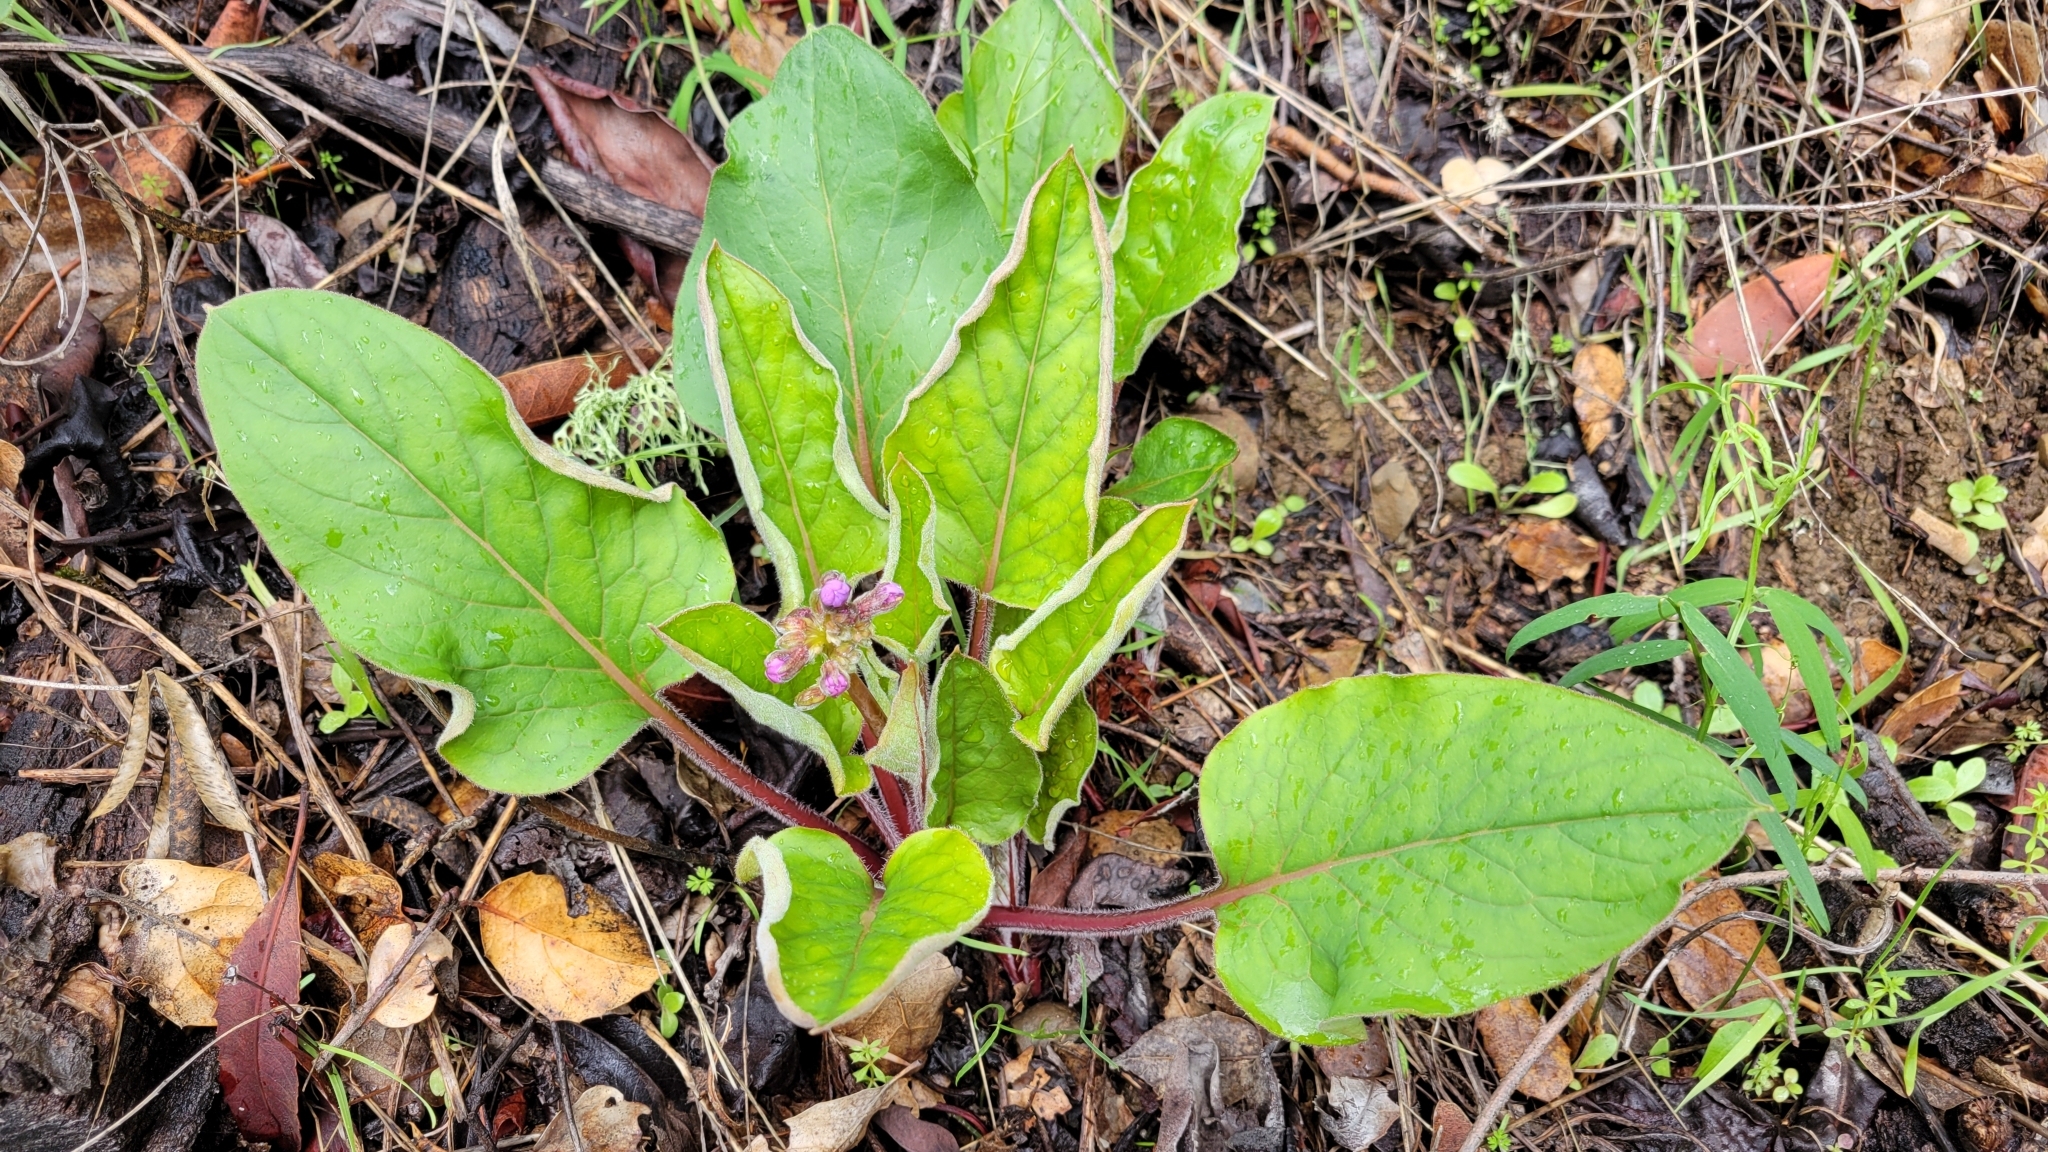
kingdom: Plantae
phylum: Tracheophyta
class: Magnoliopsida
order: Boraginales
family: Boraginaceae
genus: Adelinia
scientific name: Adelinia grande
